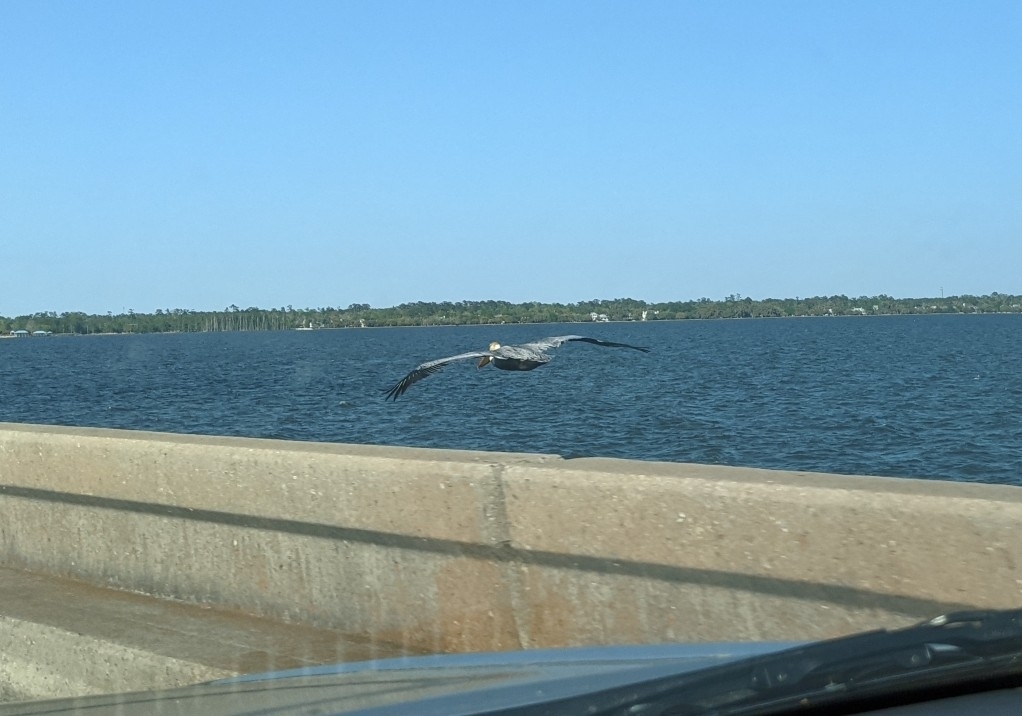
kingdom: Animalia
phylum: Chordata
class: Aves
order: Pelecaniformes
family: Pelecanidae
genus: Pelecanus
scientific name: Pelecanus occidentalis
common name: Brown pelican
